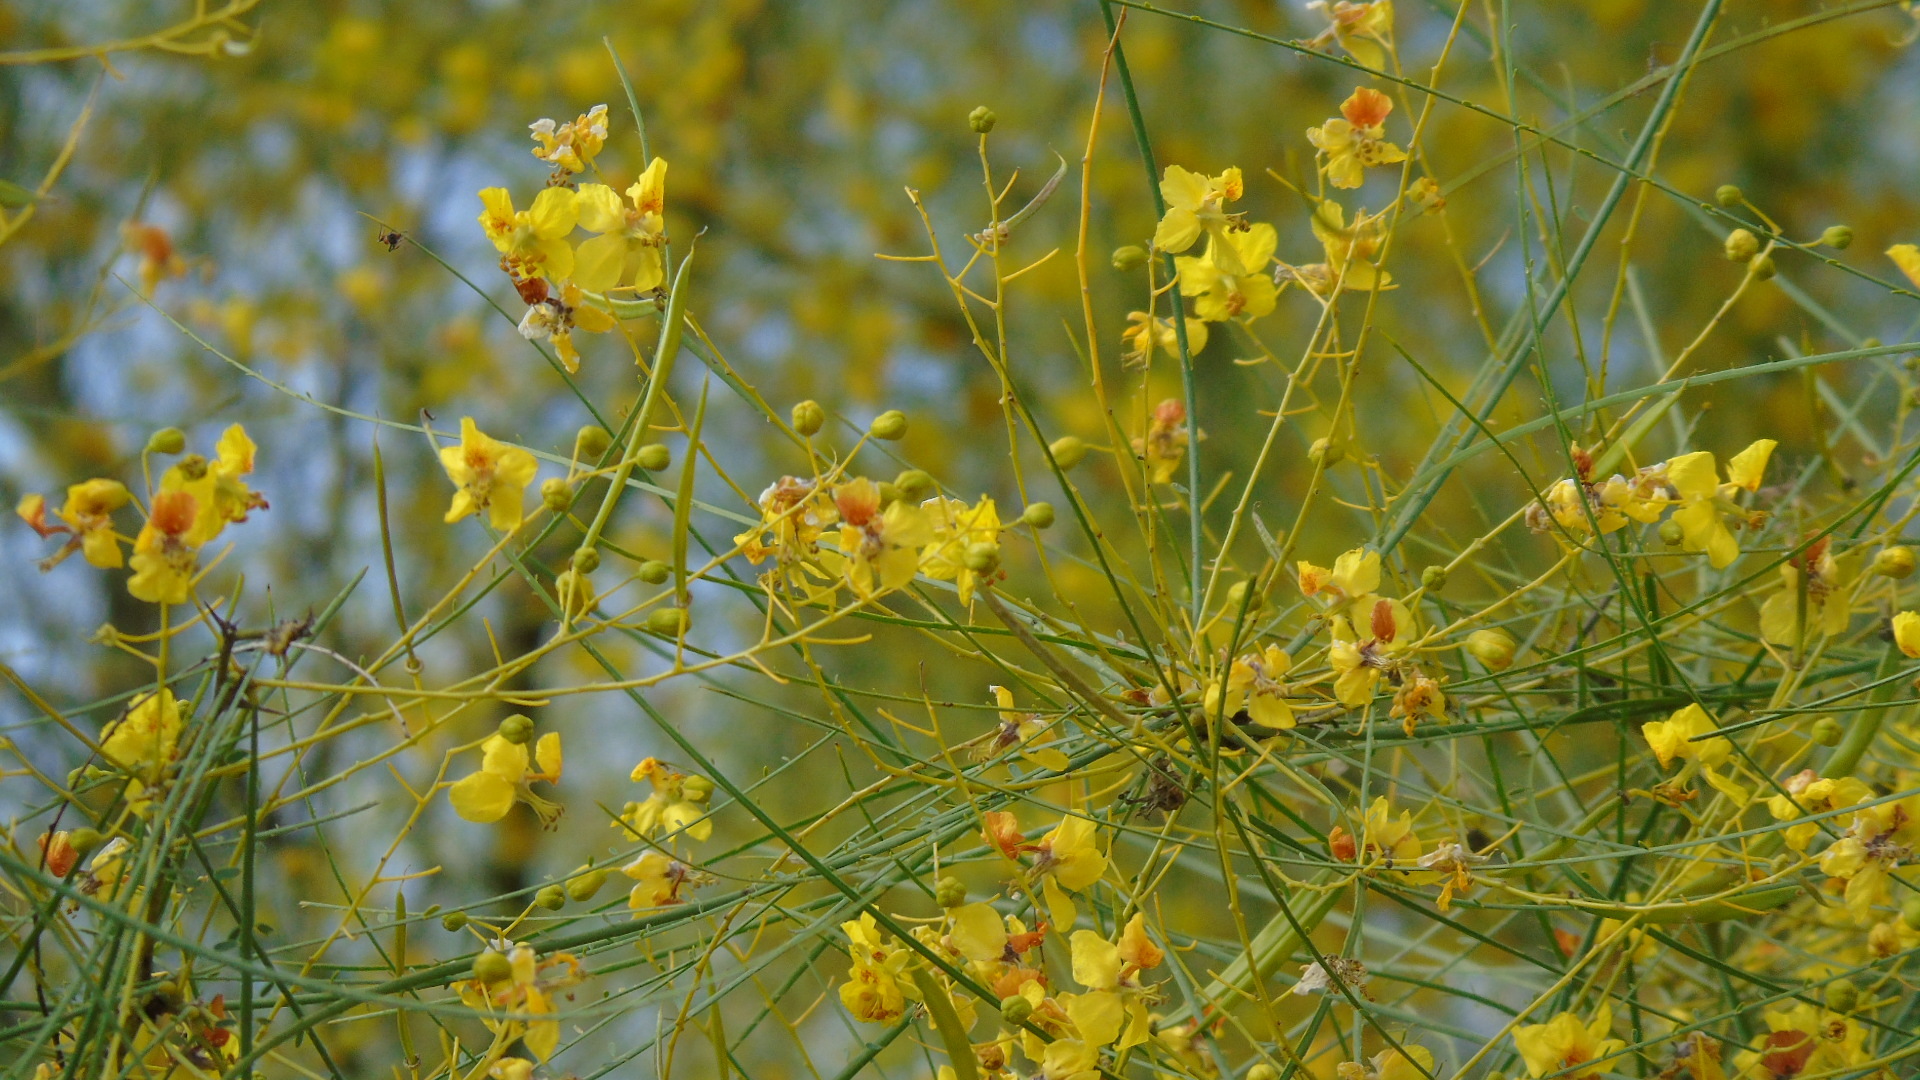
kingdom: Plantae
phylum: Tracheophyta
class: Magnoliopsida
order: Fabales
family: Fabaceae
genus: Parkinsonia
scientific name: Parkinsonia aculeata
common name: Jerusalem thorn
